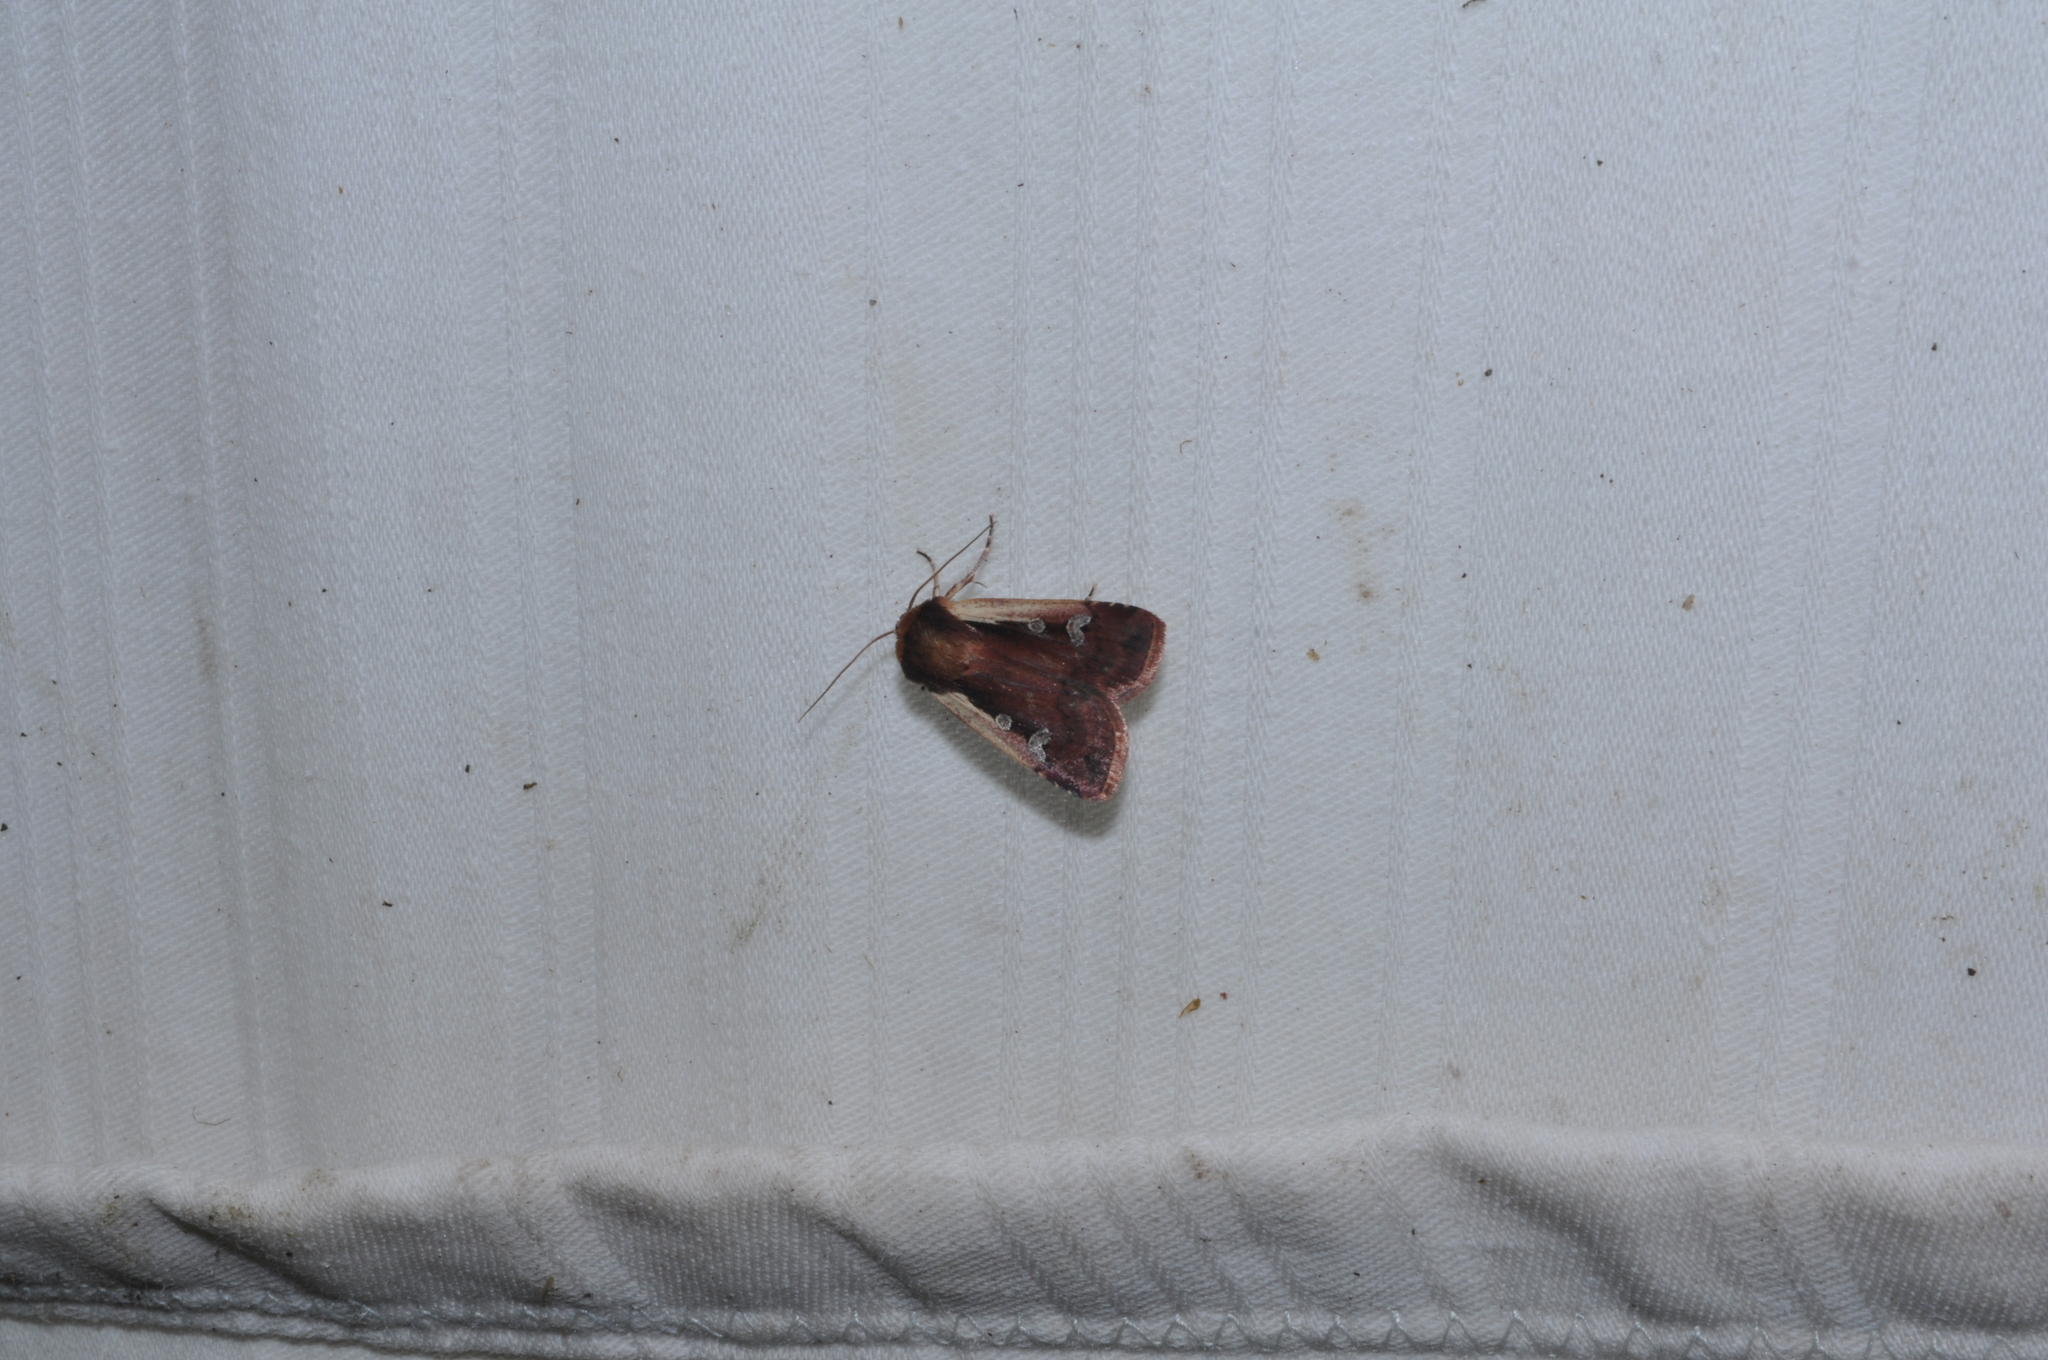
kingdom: Animalia
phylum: Arthropoda
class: Insecta
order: Lepidoptera
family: Noctuidae
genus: Ochropleura
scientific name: Ochropleura plecta
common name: Flame shoulder
